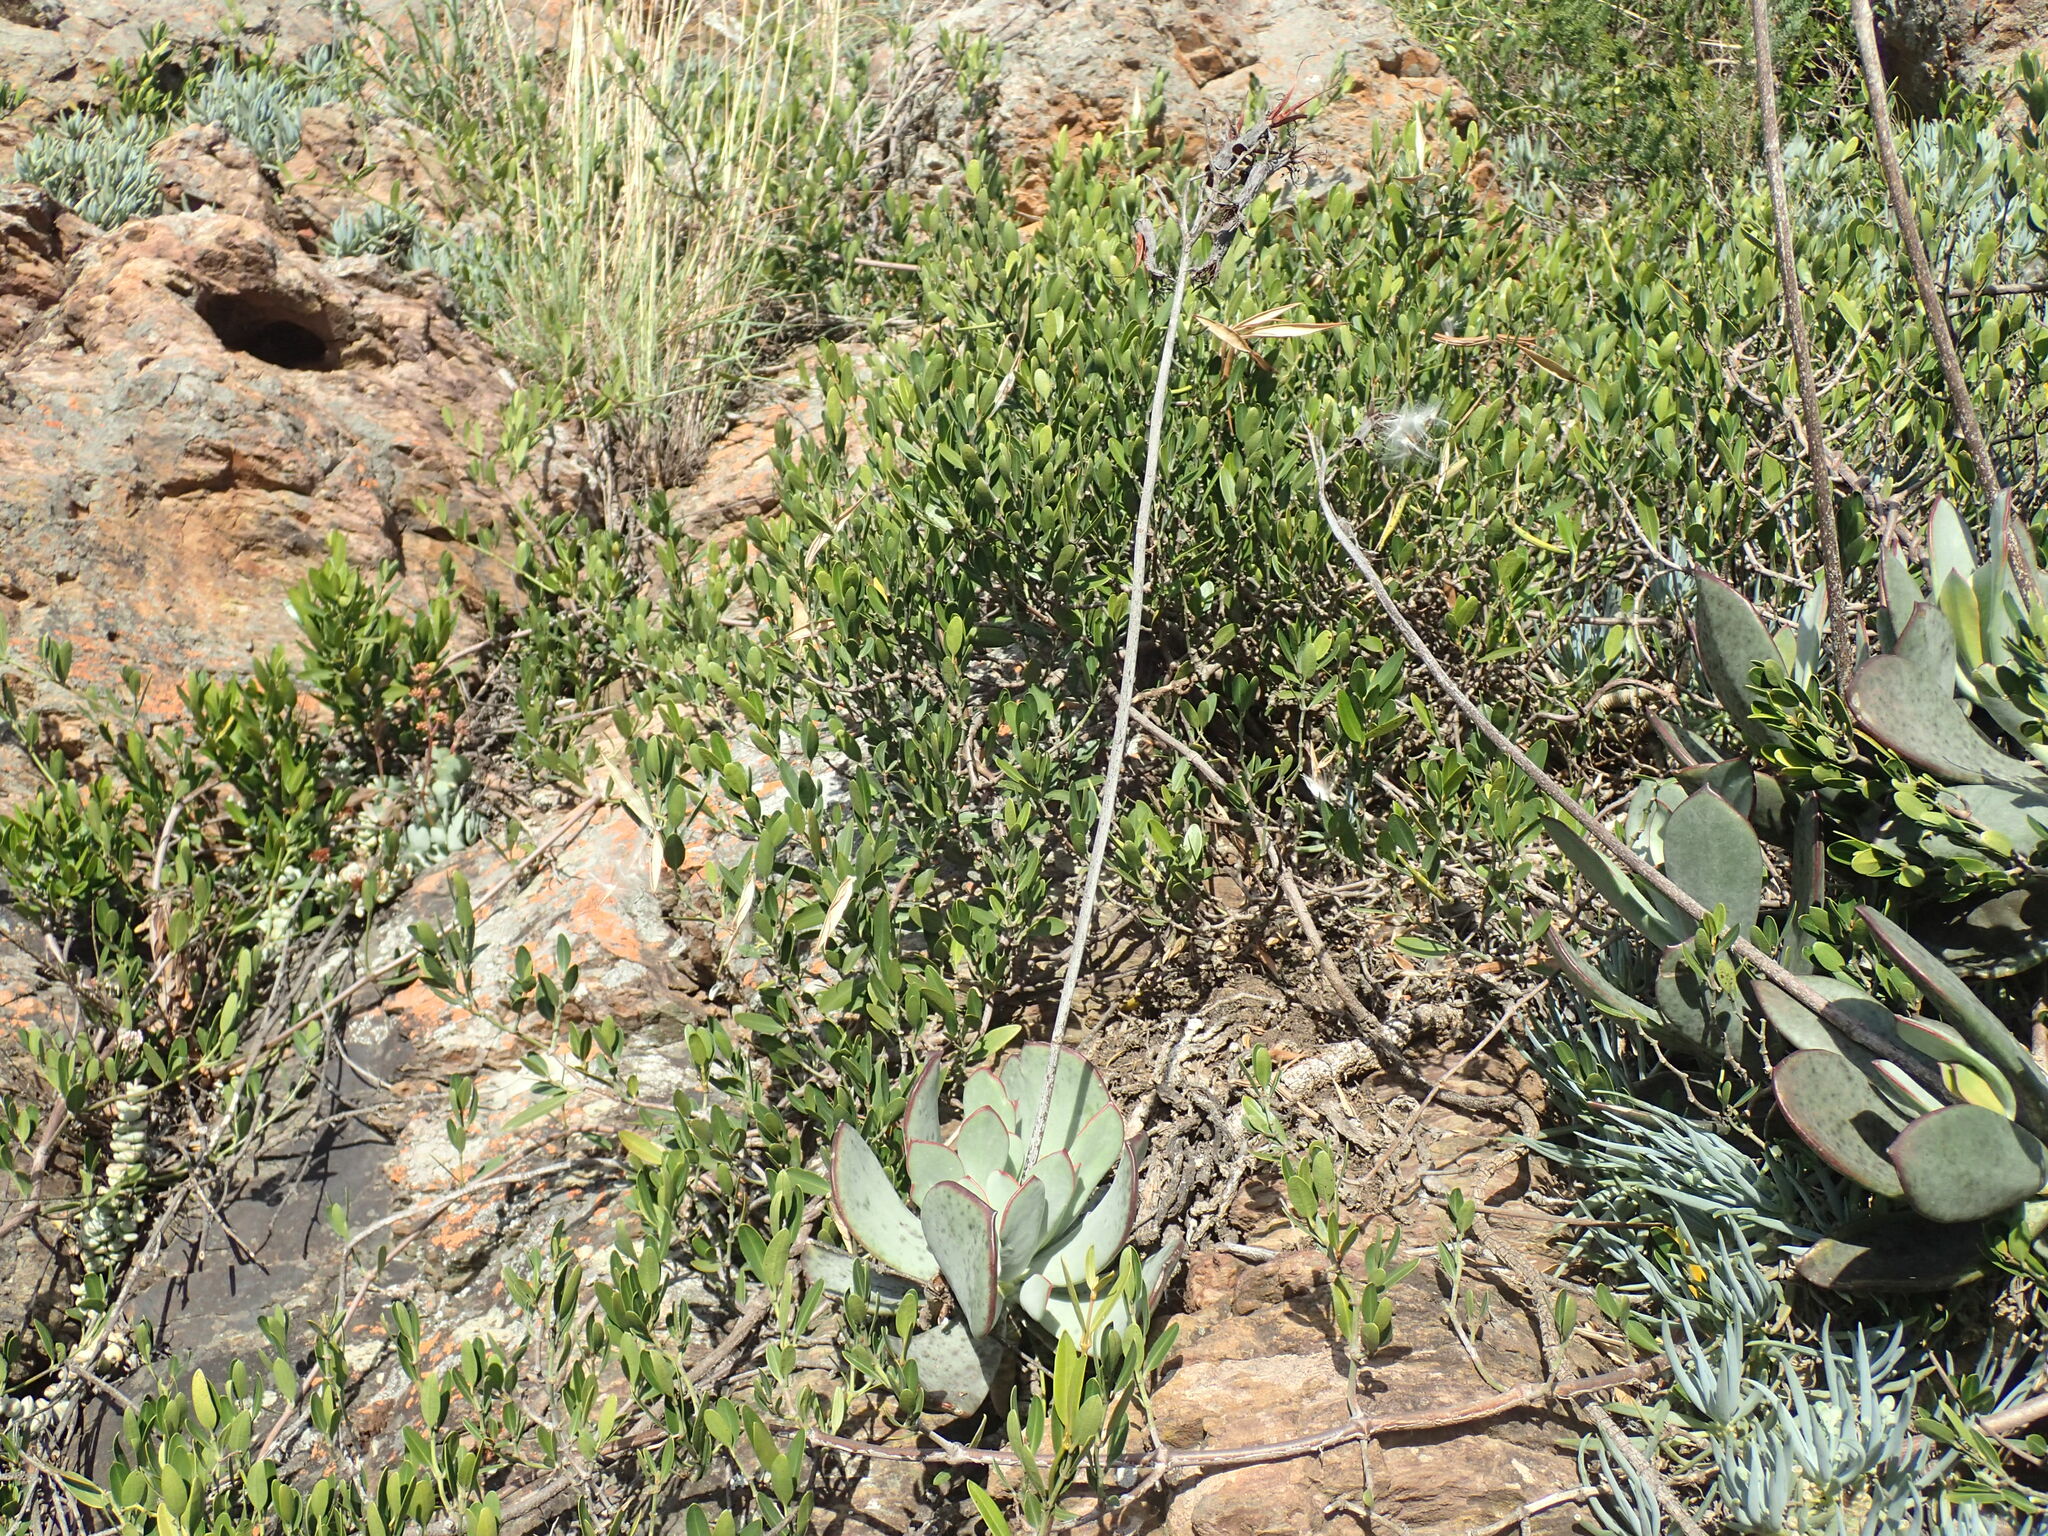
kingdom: Plantae
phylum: Tracheophyta
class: Magnoliopsida
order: Saxifragales
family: Crassulaceae
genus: Cotyledon
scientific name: Cotyledon orbiculata
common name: Pig's ear
